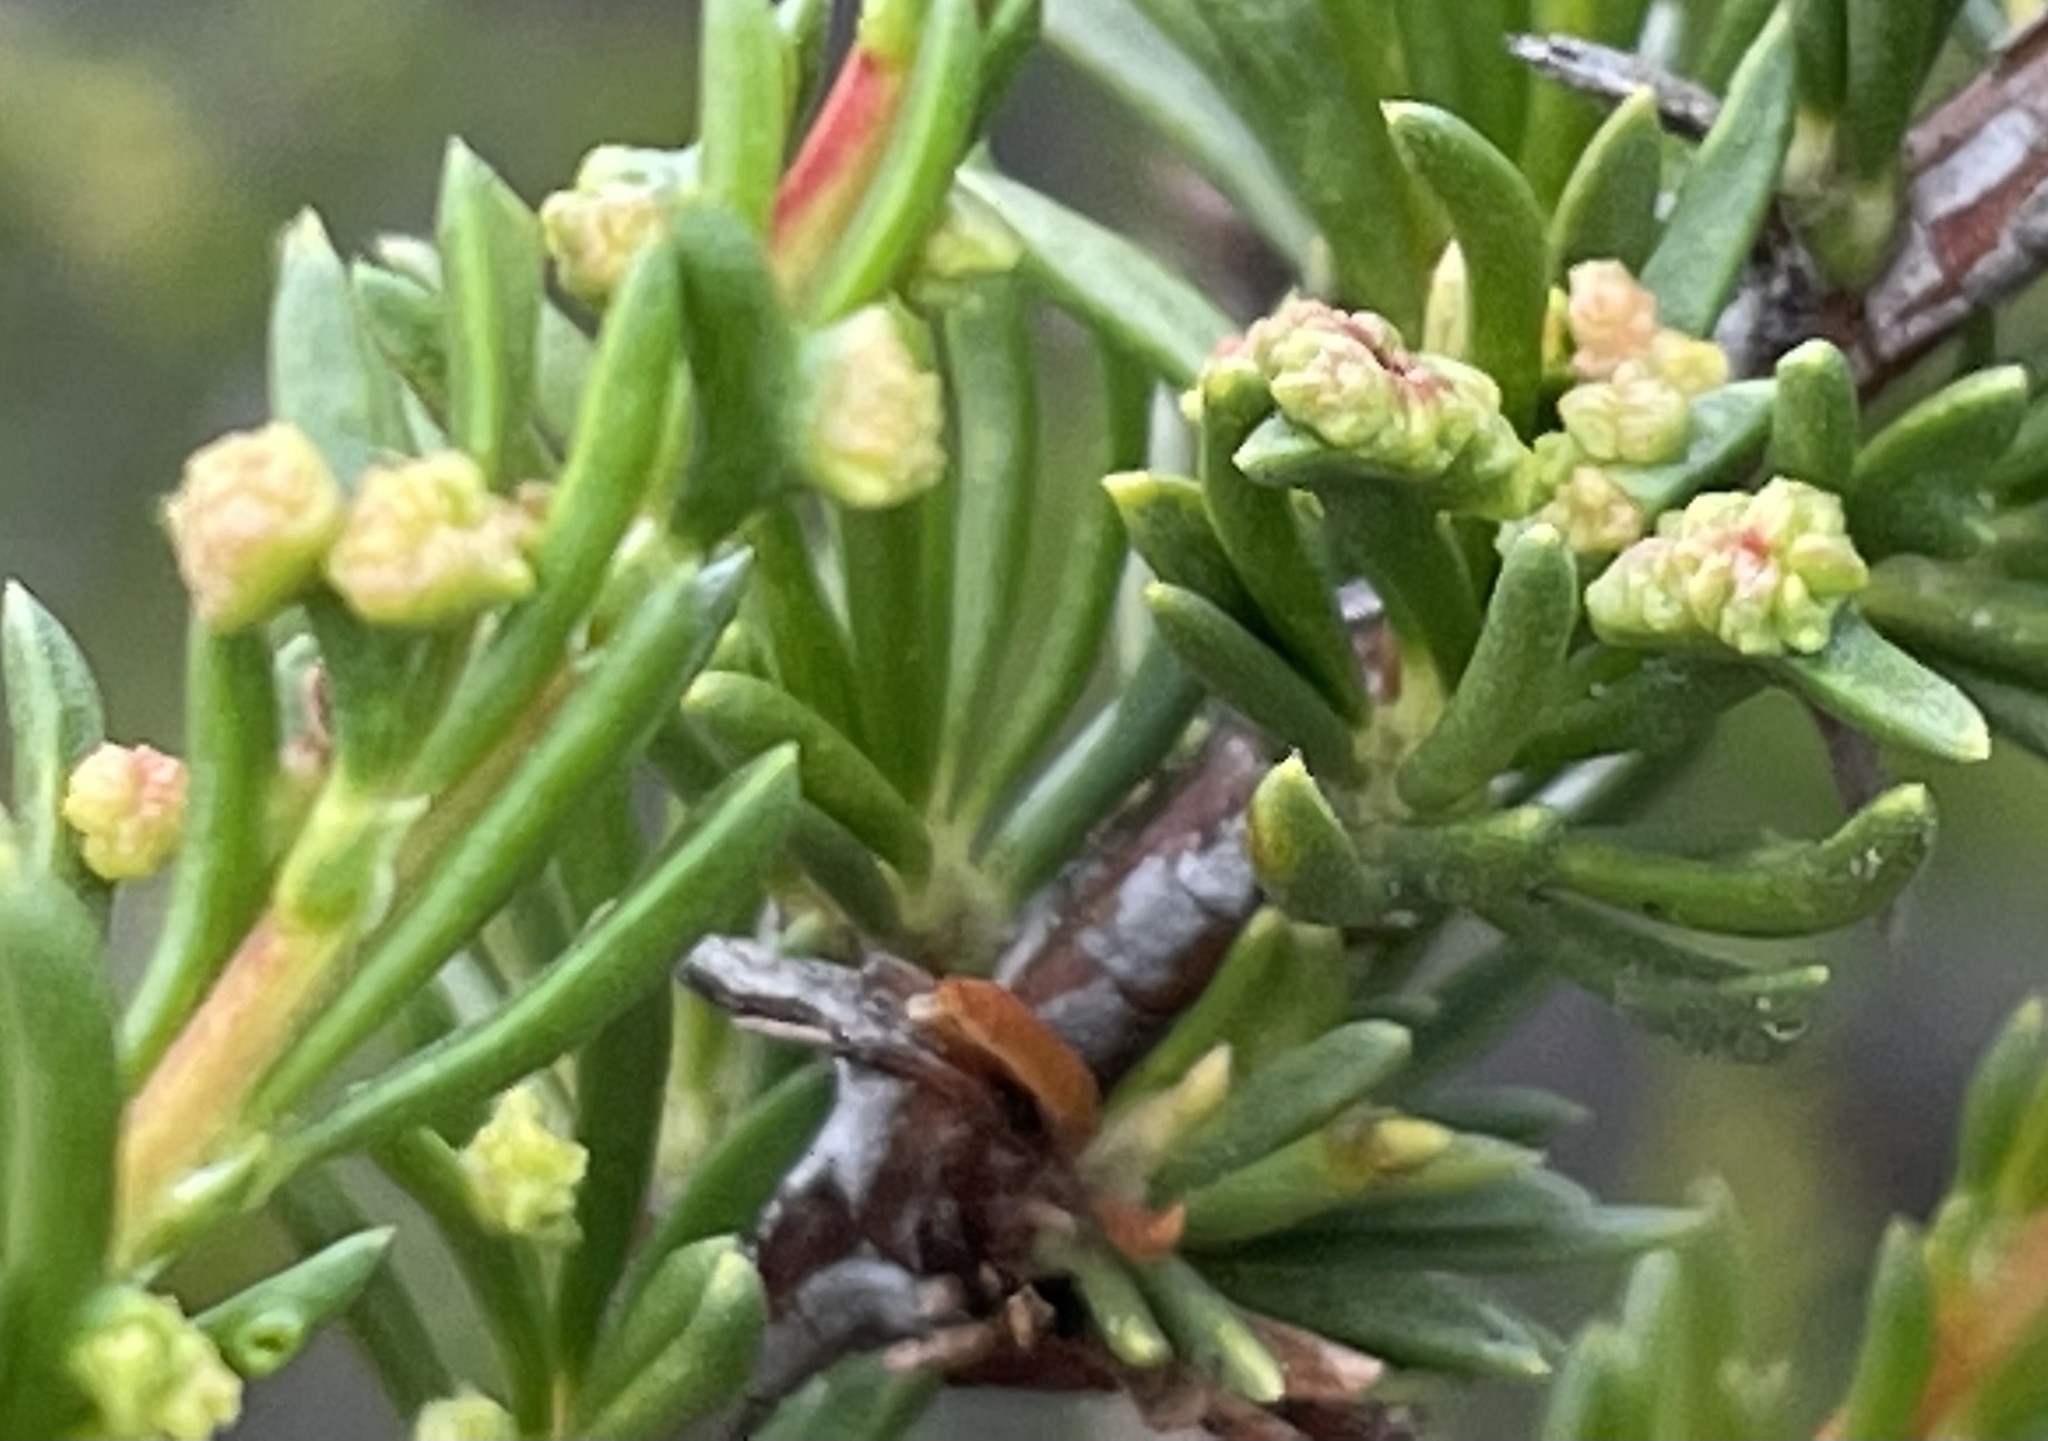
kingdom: Animalia
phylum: Arthropoda
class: Arachnida
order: Trombidiformes
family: Eriophyidae
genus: Eriophyes
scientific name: Eriophyes
